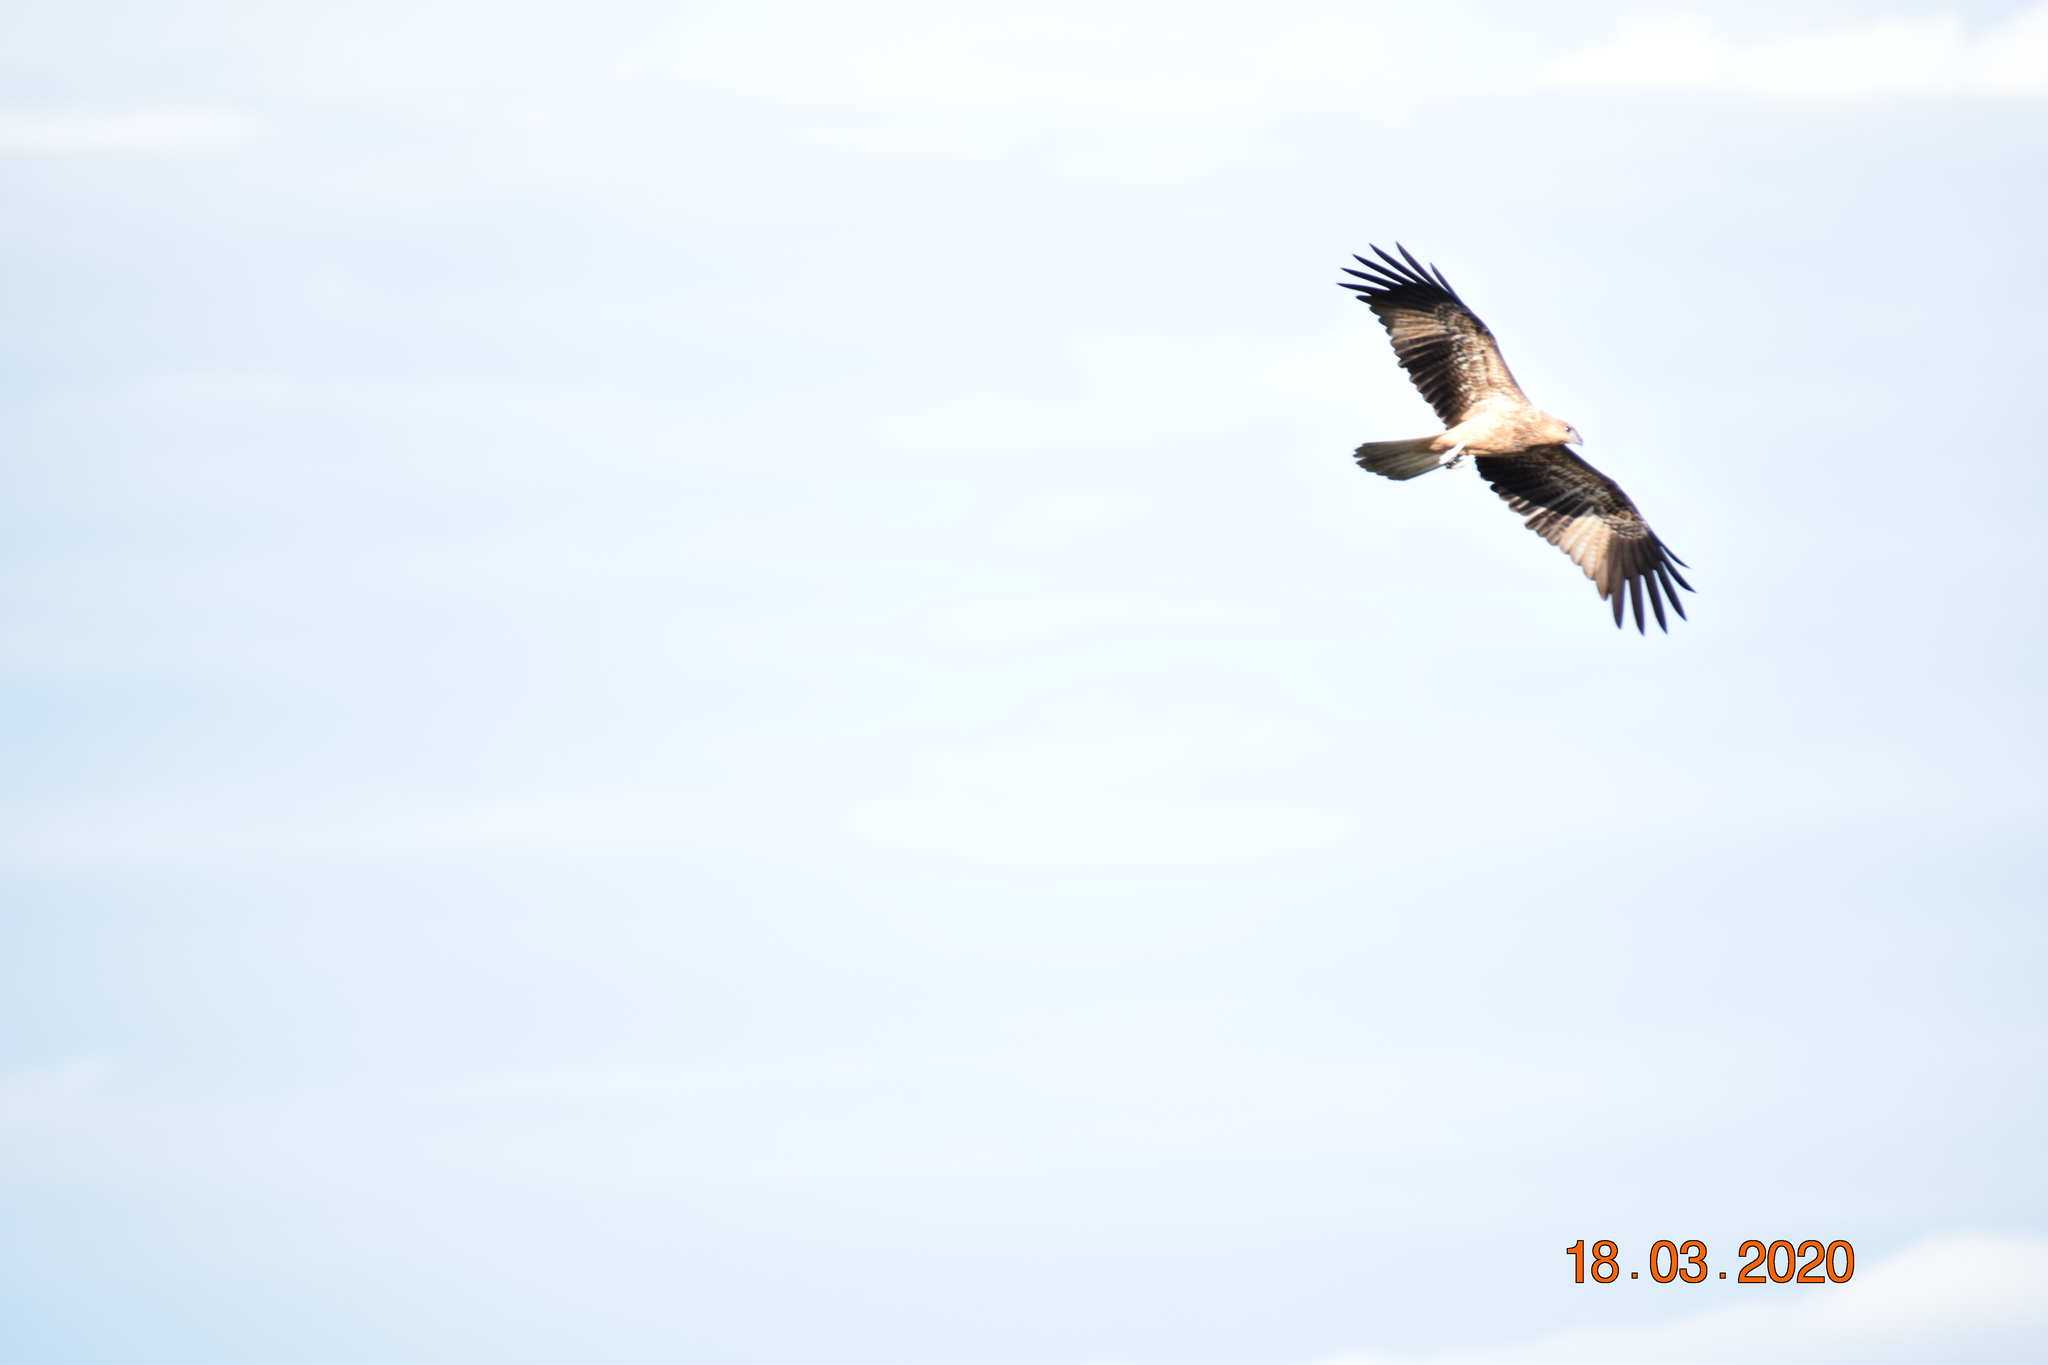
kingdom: Animalia
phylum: Chordata
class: Aves
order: Accipitriformes
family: Accipitridae
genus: Haliastur
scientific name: Haliastur sphenurus
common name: Whistling kite
